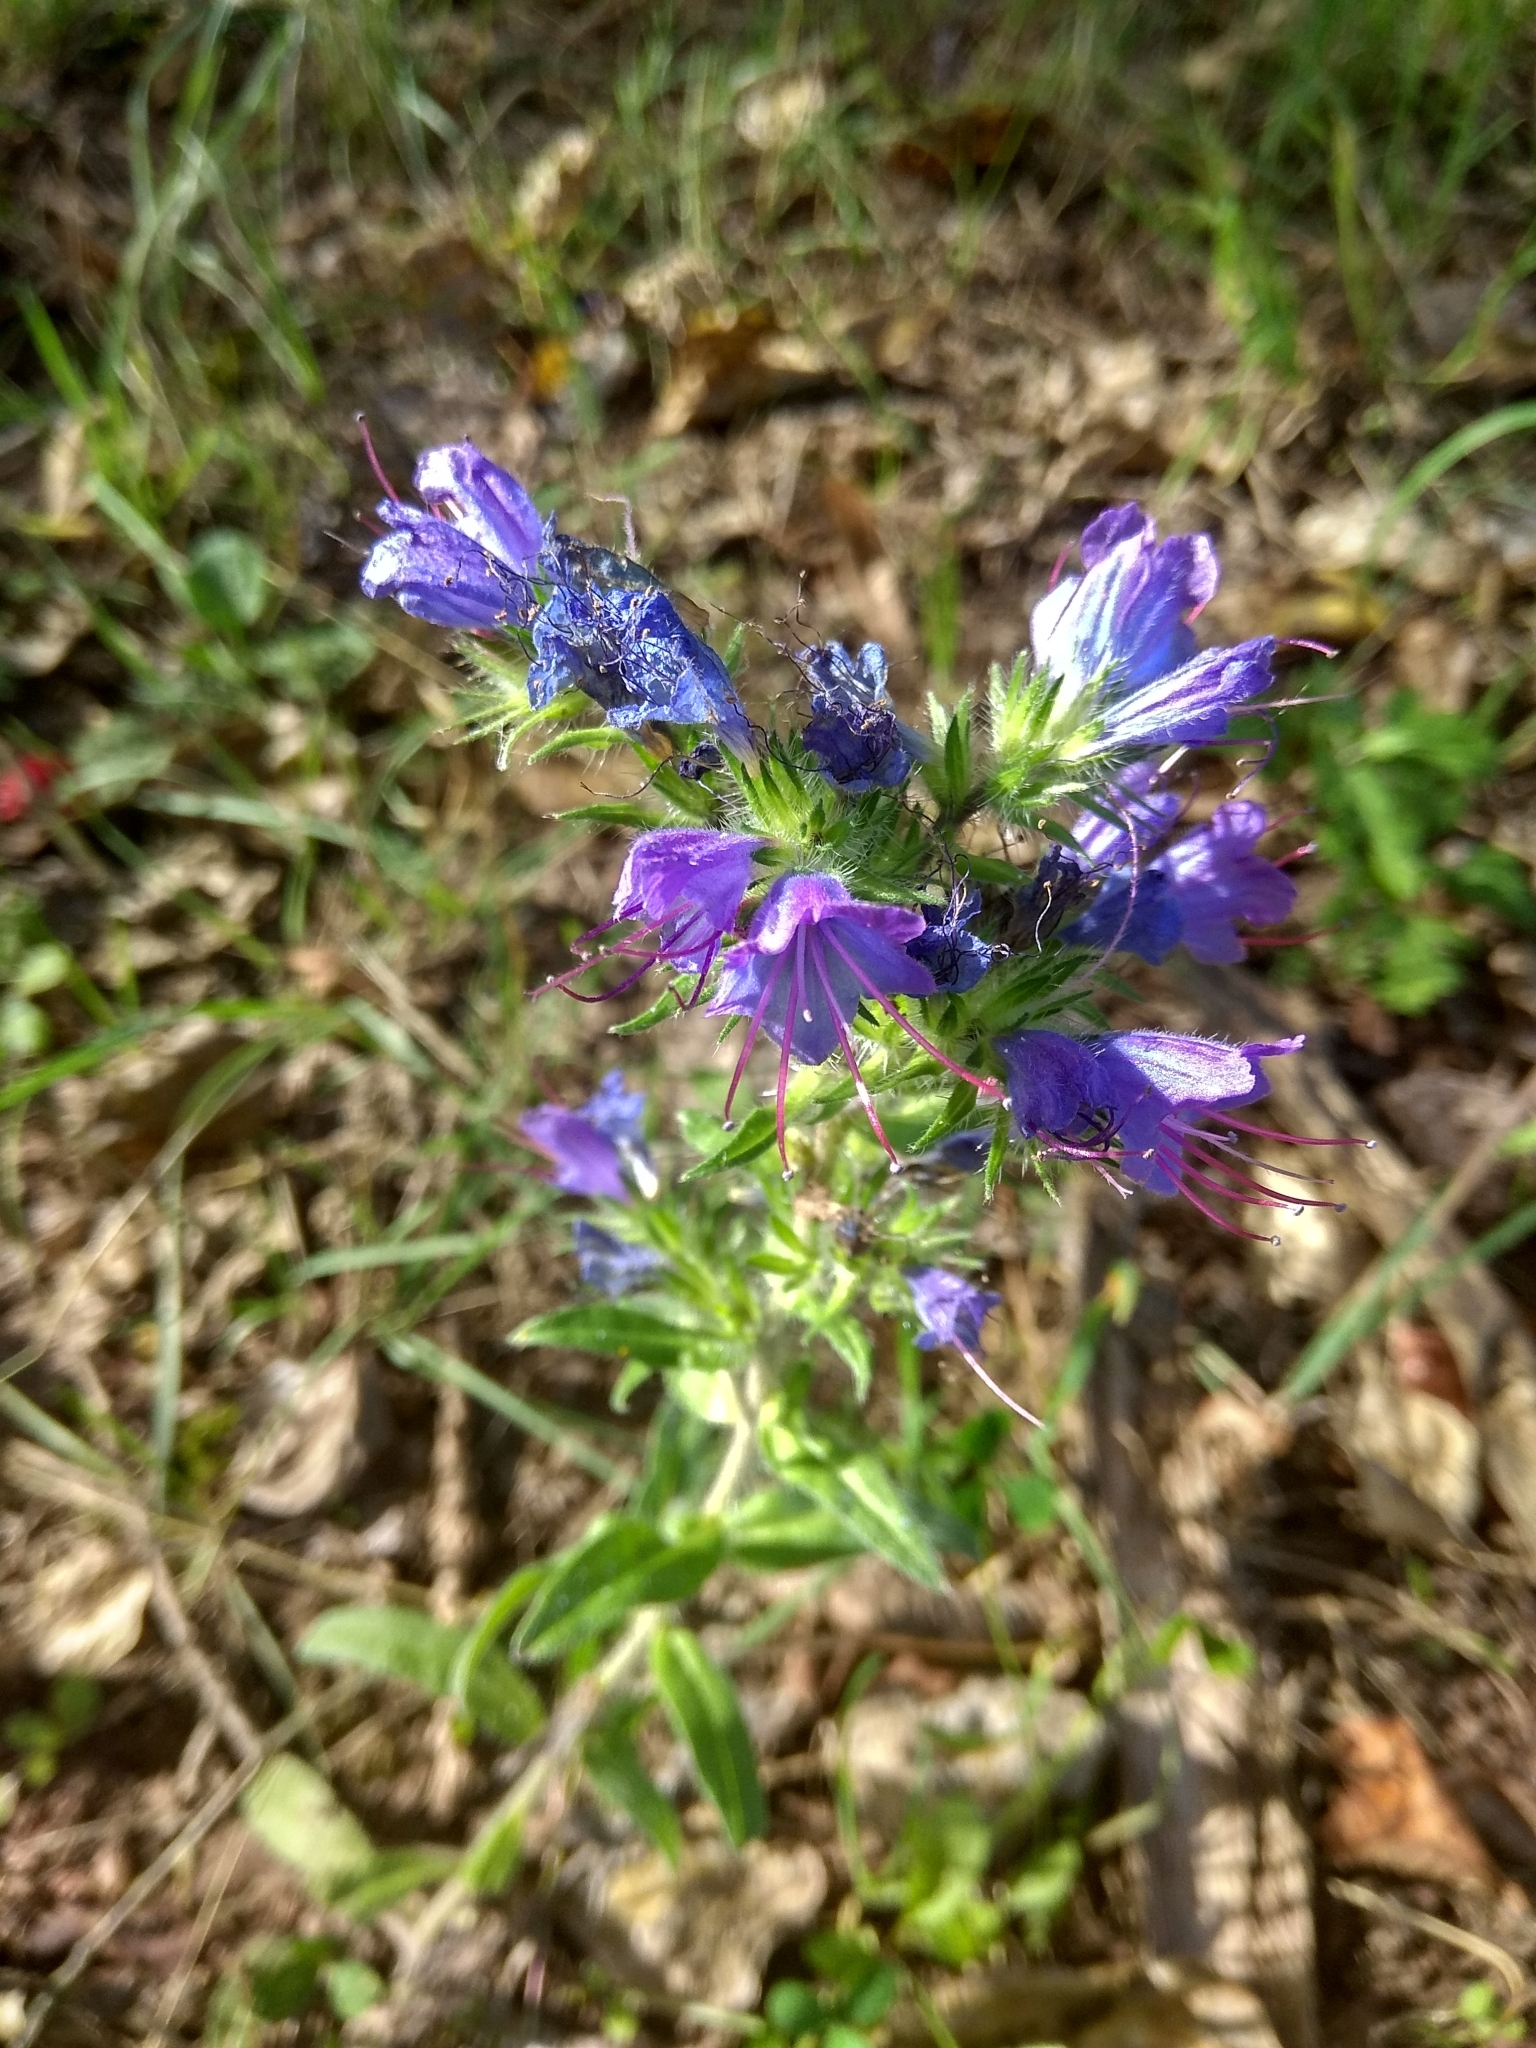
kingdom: Plantae
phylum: Tracheophyta
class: Magnoliopsida
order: Boraginales
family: Boraginaceae
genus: Echium
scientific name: Echium vulgare
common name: Common viper's bugloss
